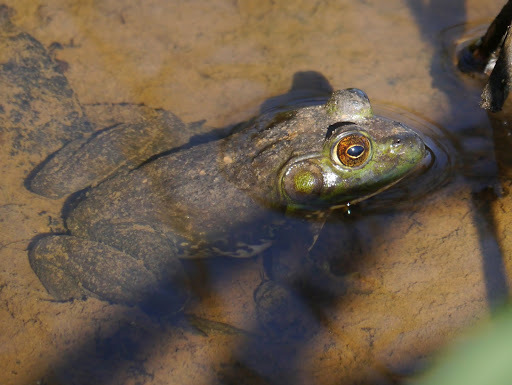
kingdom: Animalia
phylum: Chordata
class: Amphibia
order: Anura
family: Ranidae
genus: Lithobates
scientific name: Lithobates catesbeianus
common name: American bullfrog
